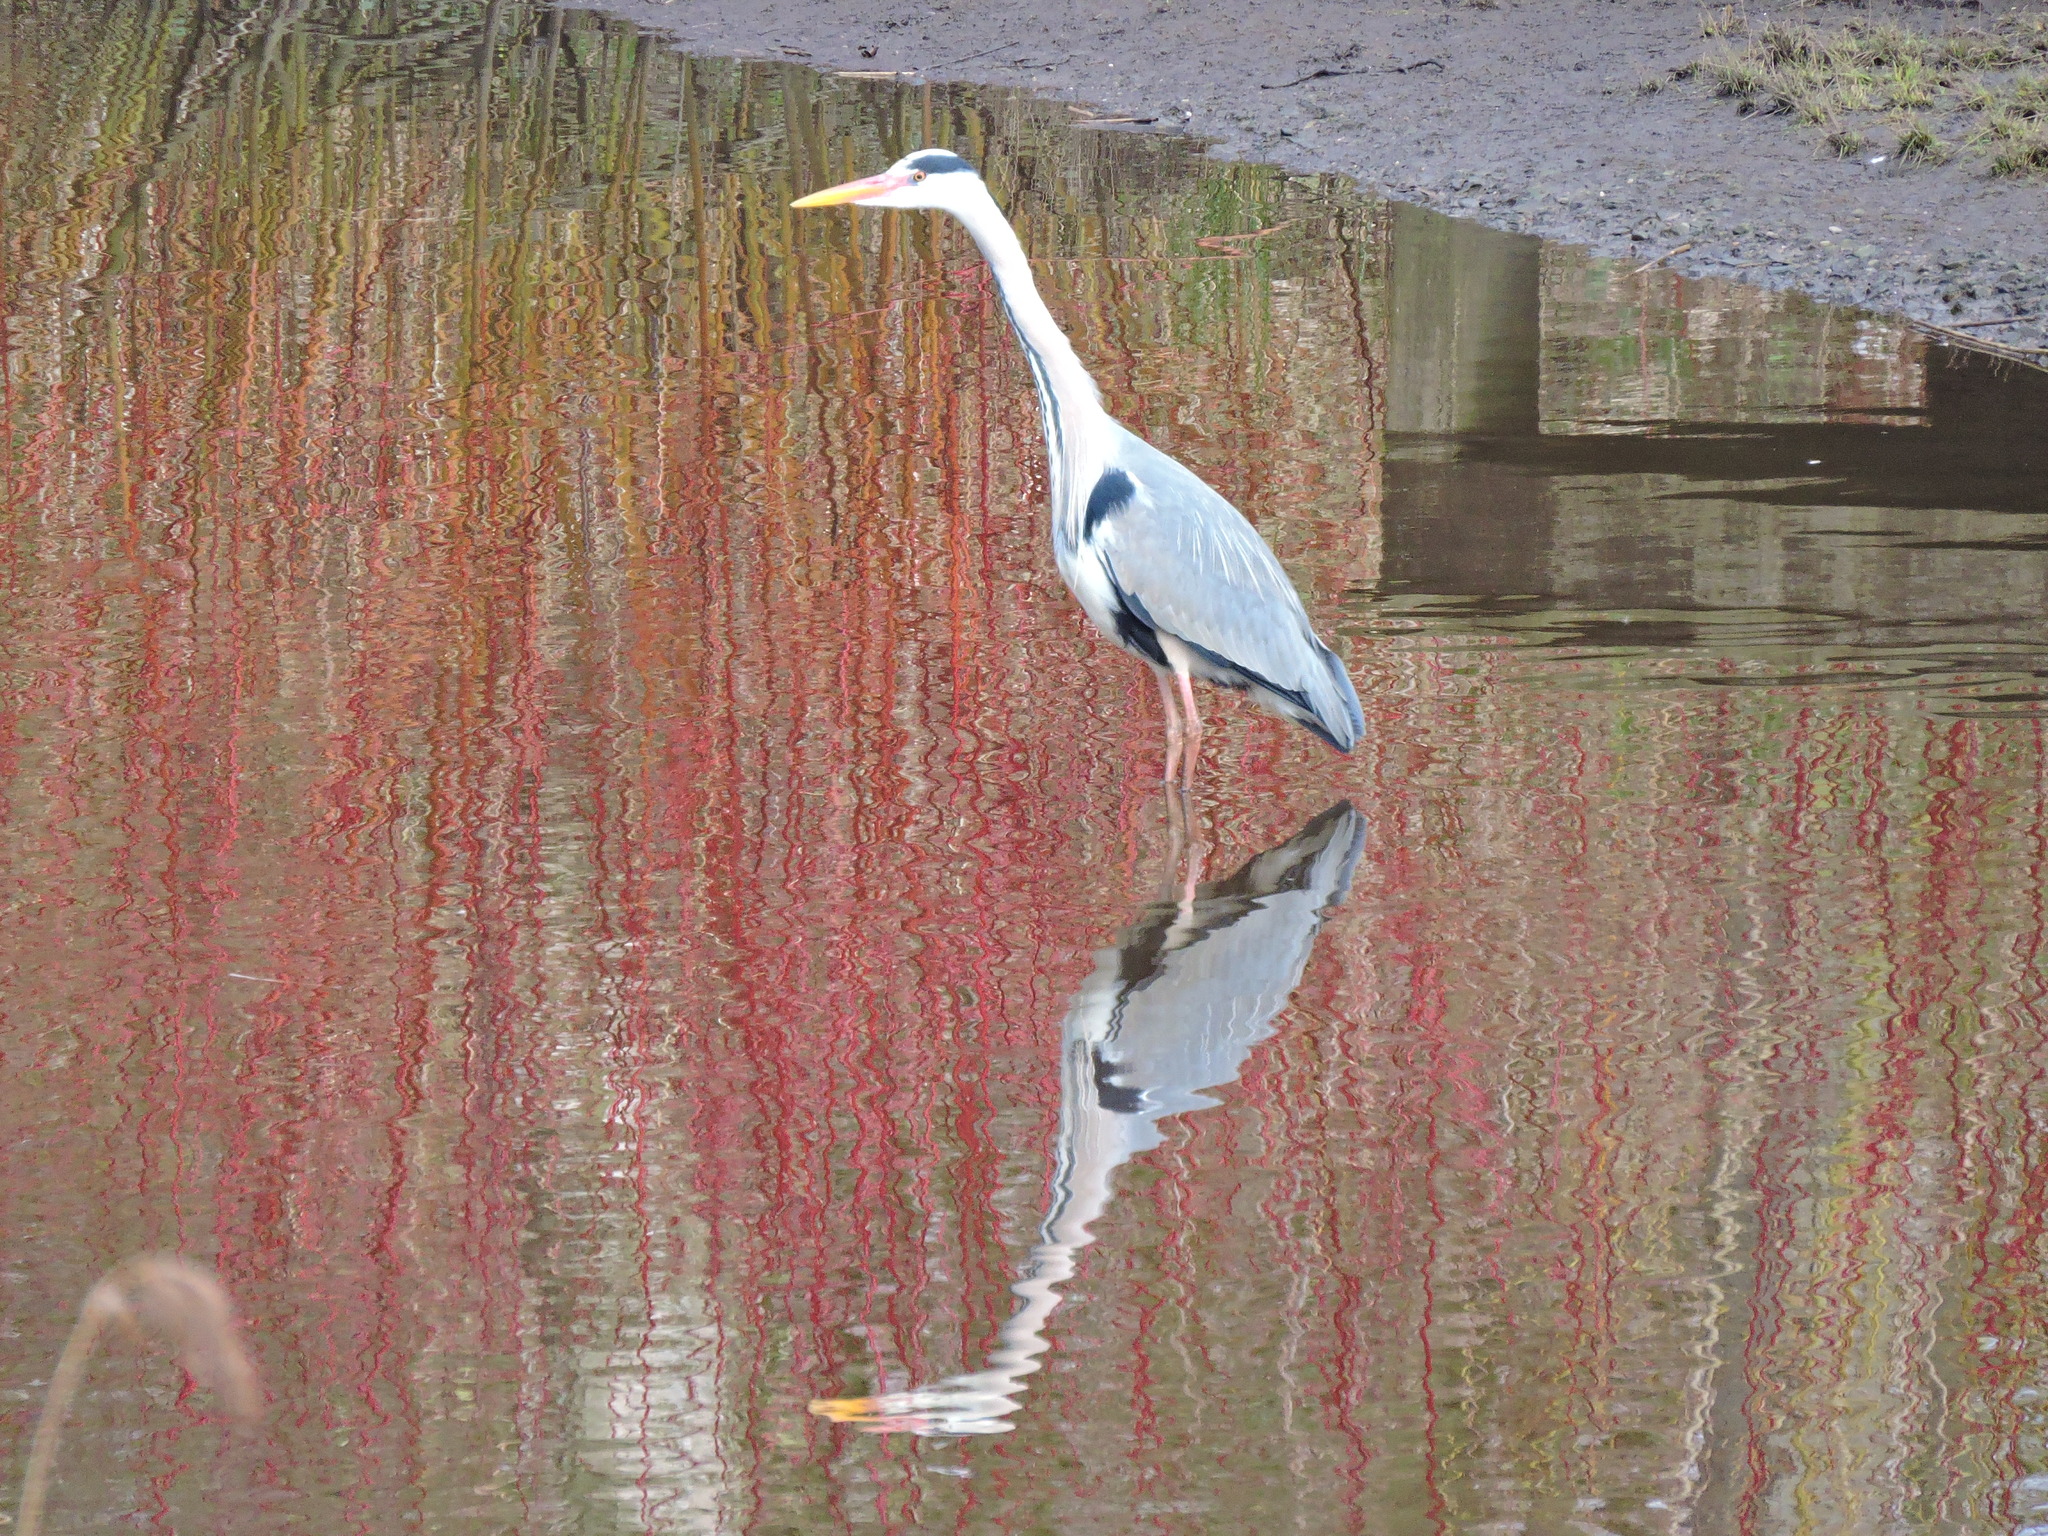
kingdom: Animalia
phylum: Chordata
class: Aves
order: Pelecaniformes
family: Ardeidae
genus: Ardea
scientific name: Ardea cinerea
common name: Grey heron
